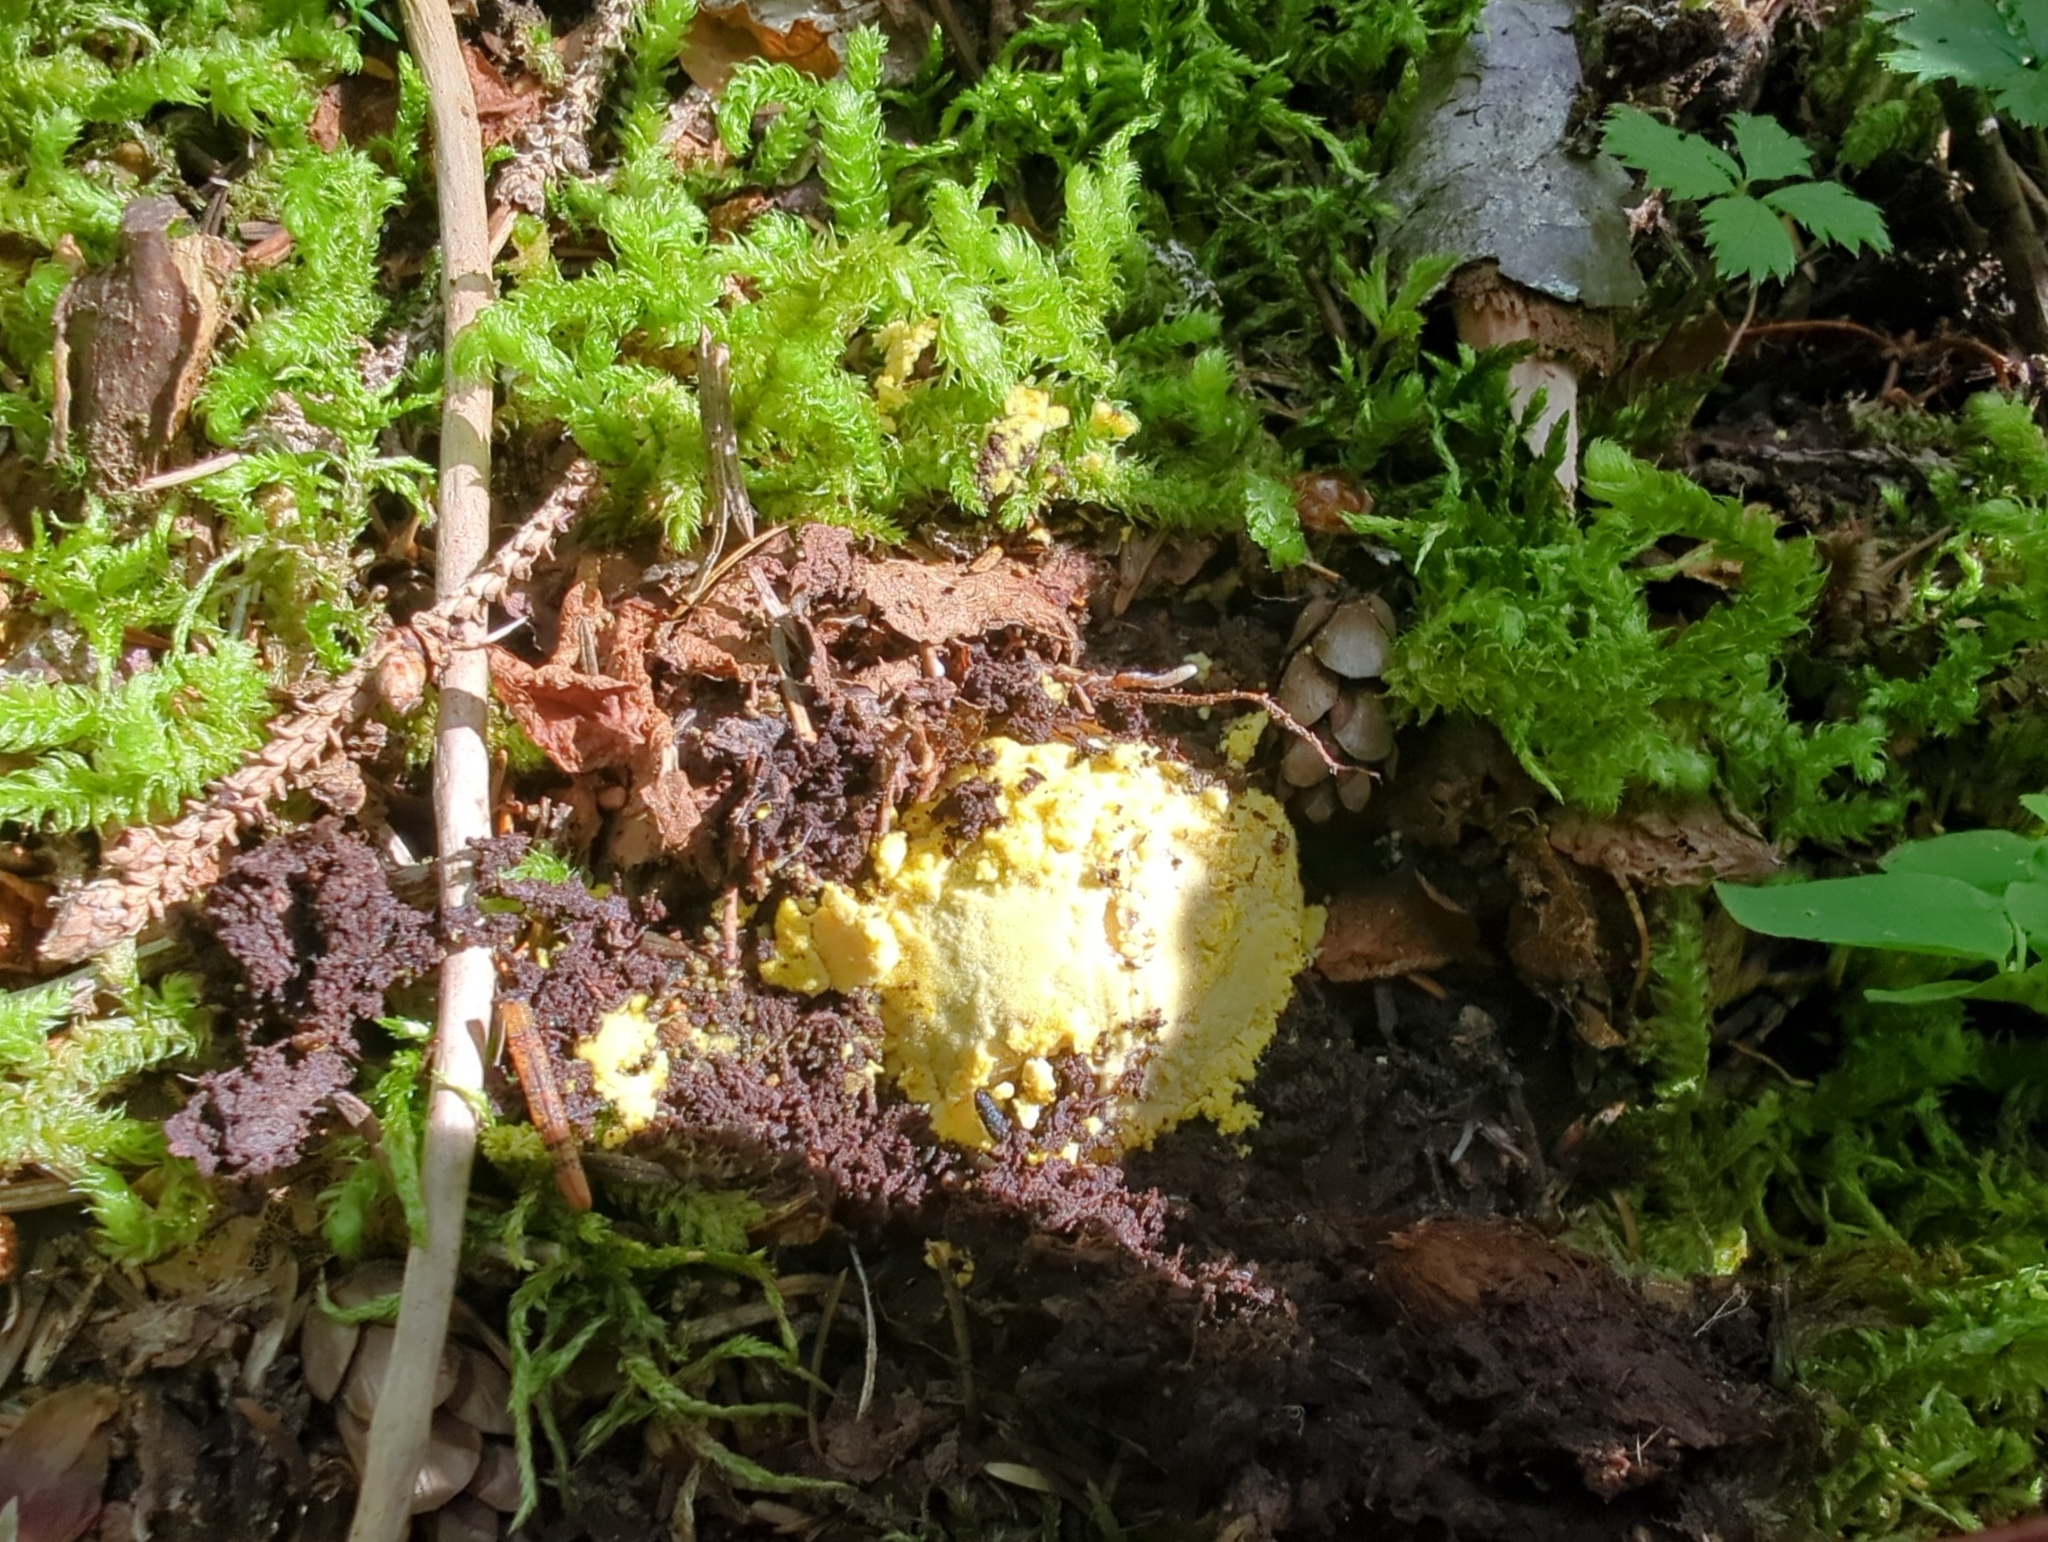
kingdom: Fungi
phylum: Basidiomycota
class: Agaricomycetes
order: Agaricales
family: Amanitaceae
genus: Amanita
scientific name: Amanita augusta
